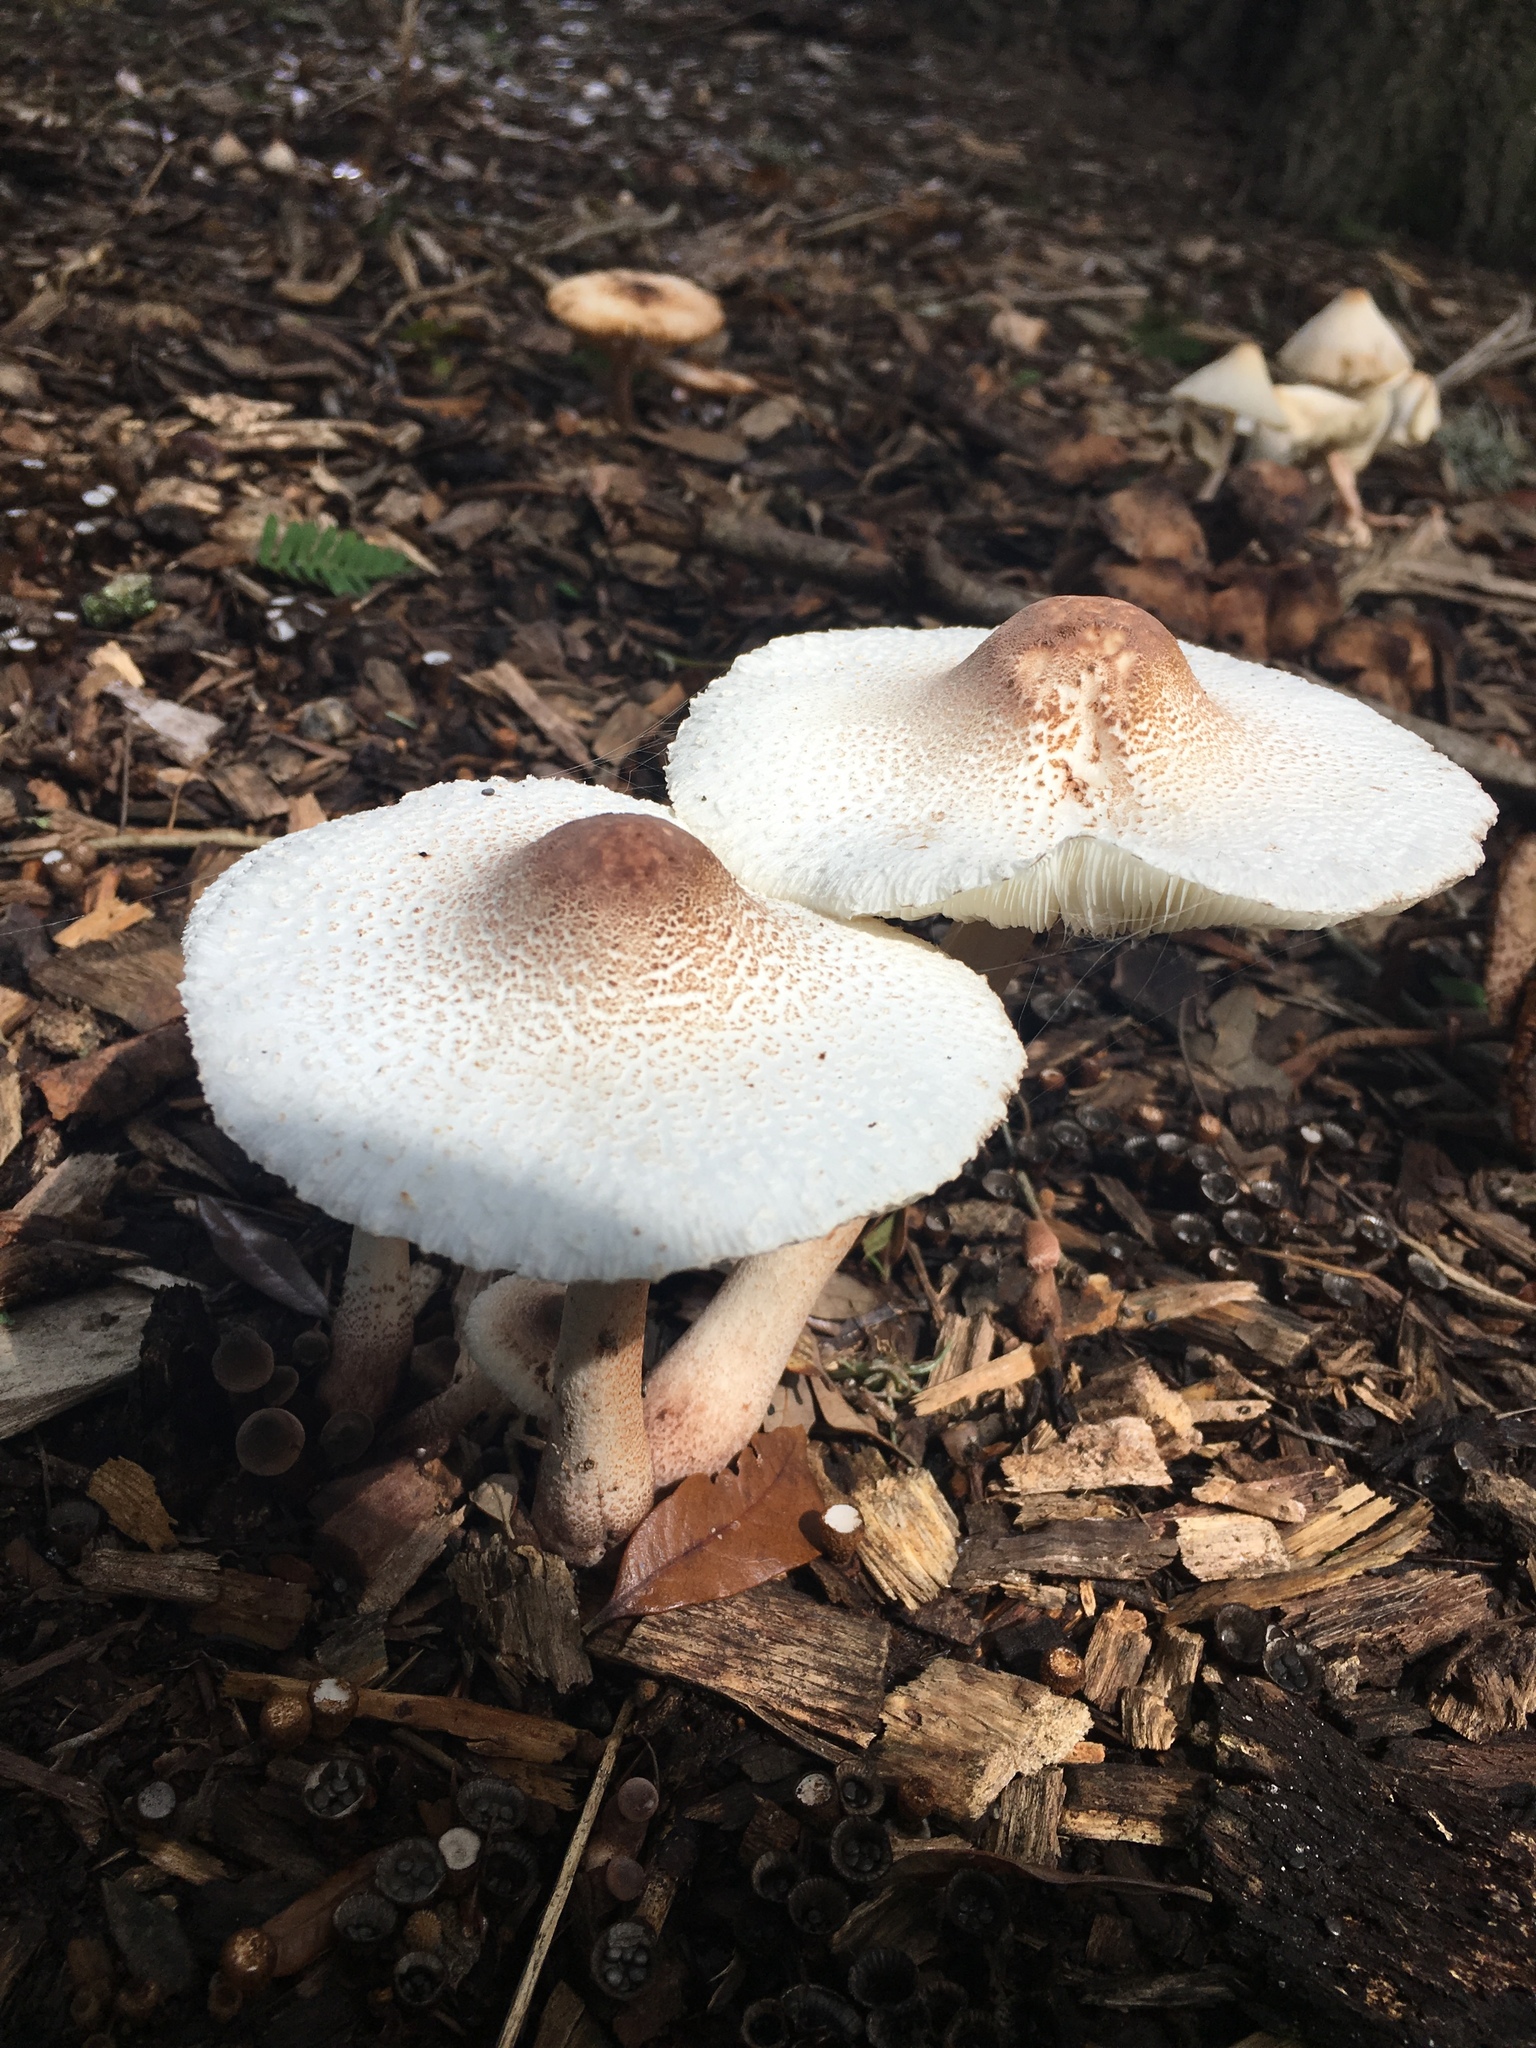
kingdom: Fungi
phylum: Basidiomycota
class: Agaricomycetes
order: Agaricales
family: Agaricaceae
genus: Leucoagaricus
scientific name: Leucoagaricus americanus
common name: Reddening lepiota
